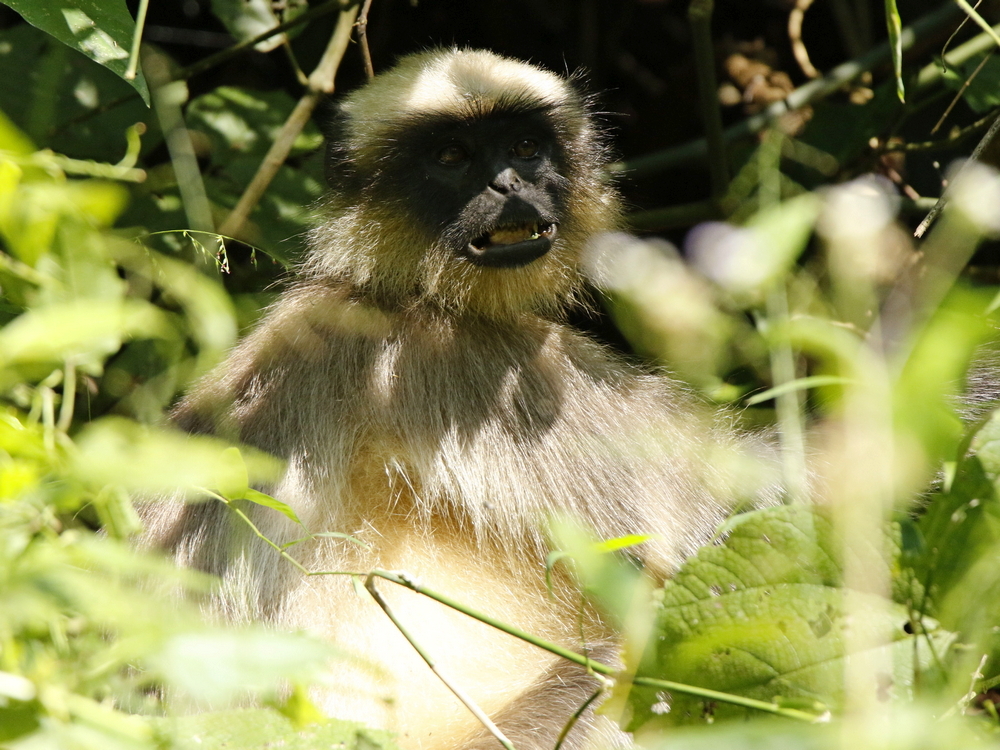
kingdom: Animalia
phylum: Chordata
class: Mammalia
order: Primates
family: Cercopithecidae
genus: Semnopithecus
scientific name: Semnopithecus hypoleucos
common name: Black-footed gray langur
